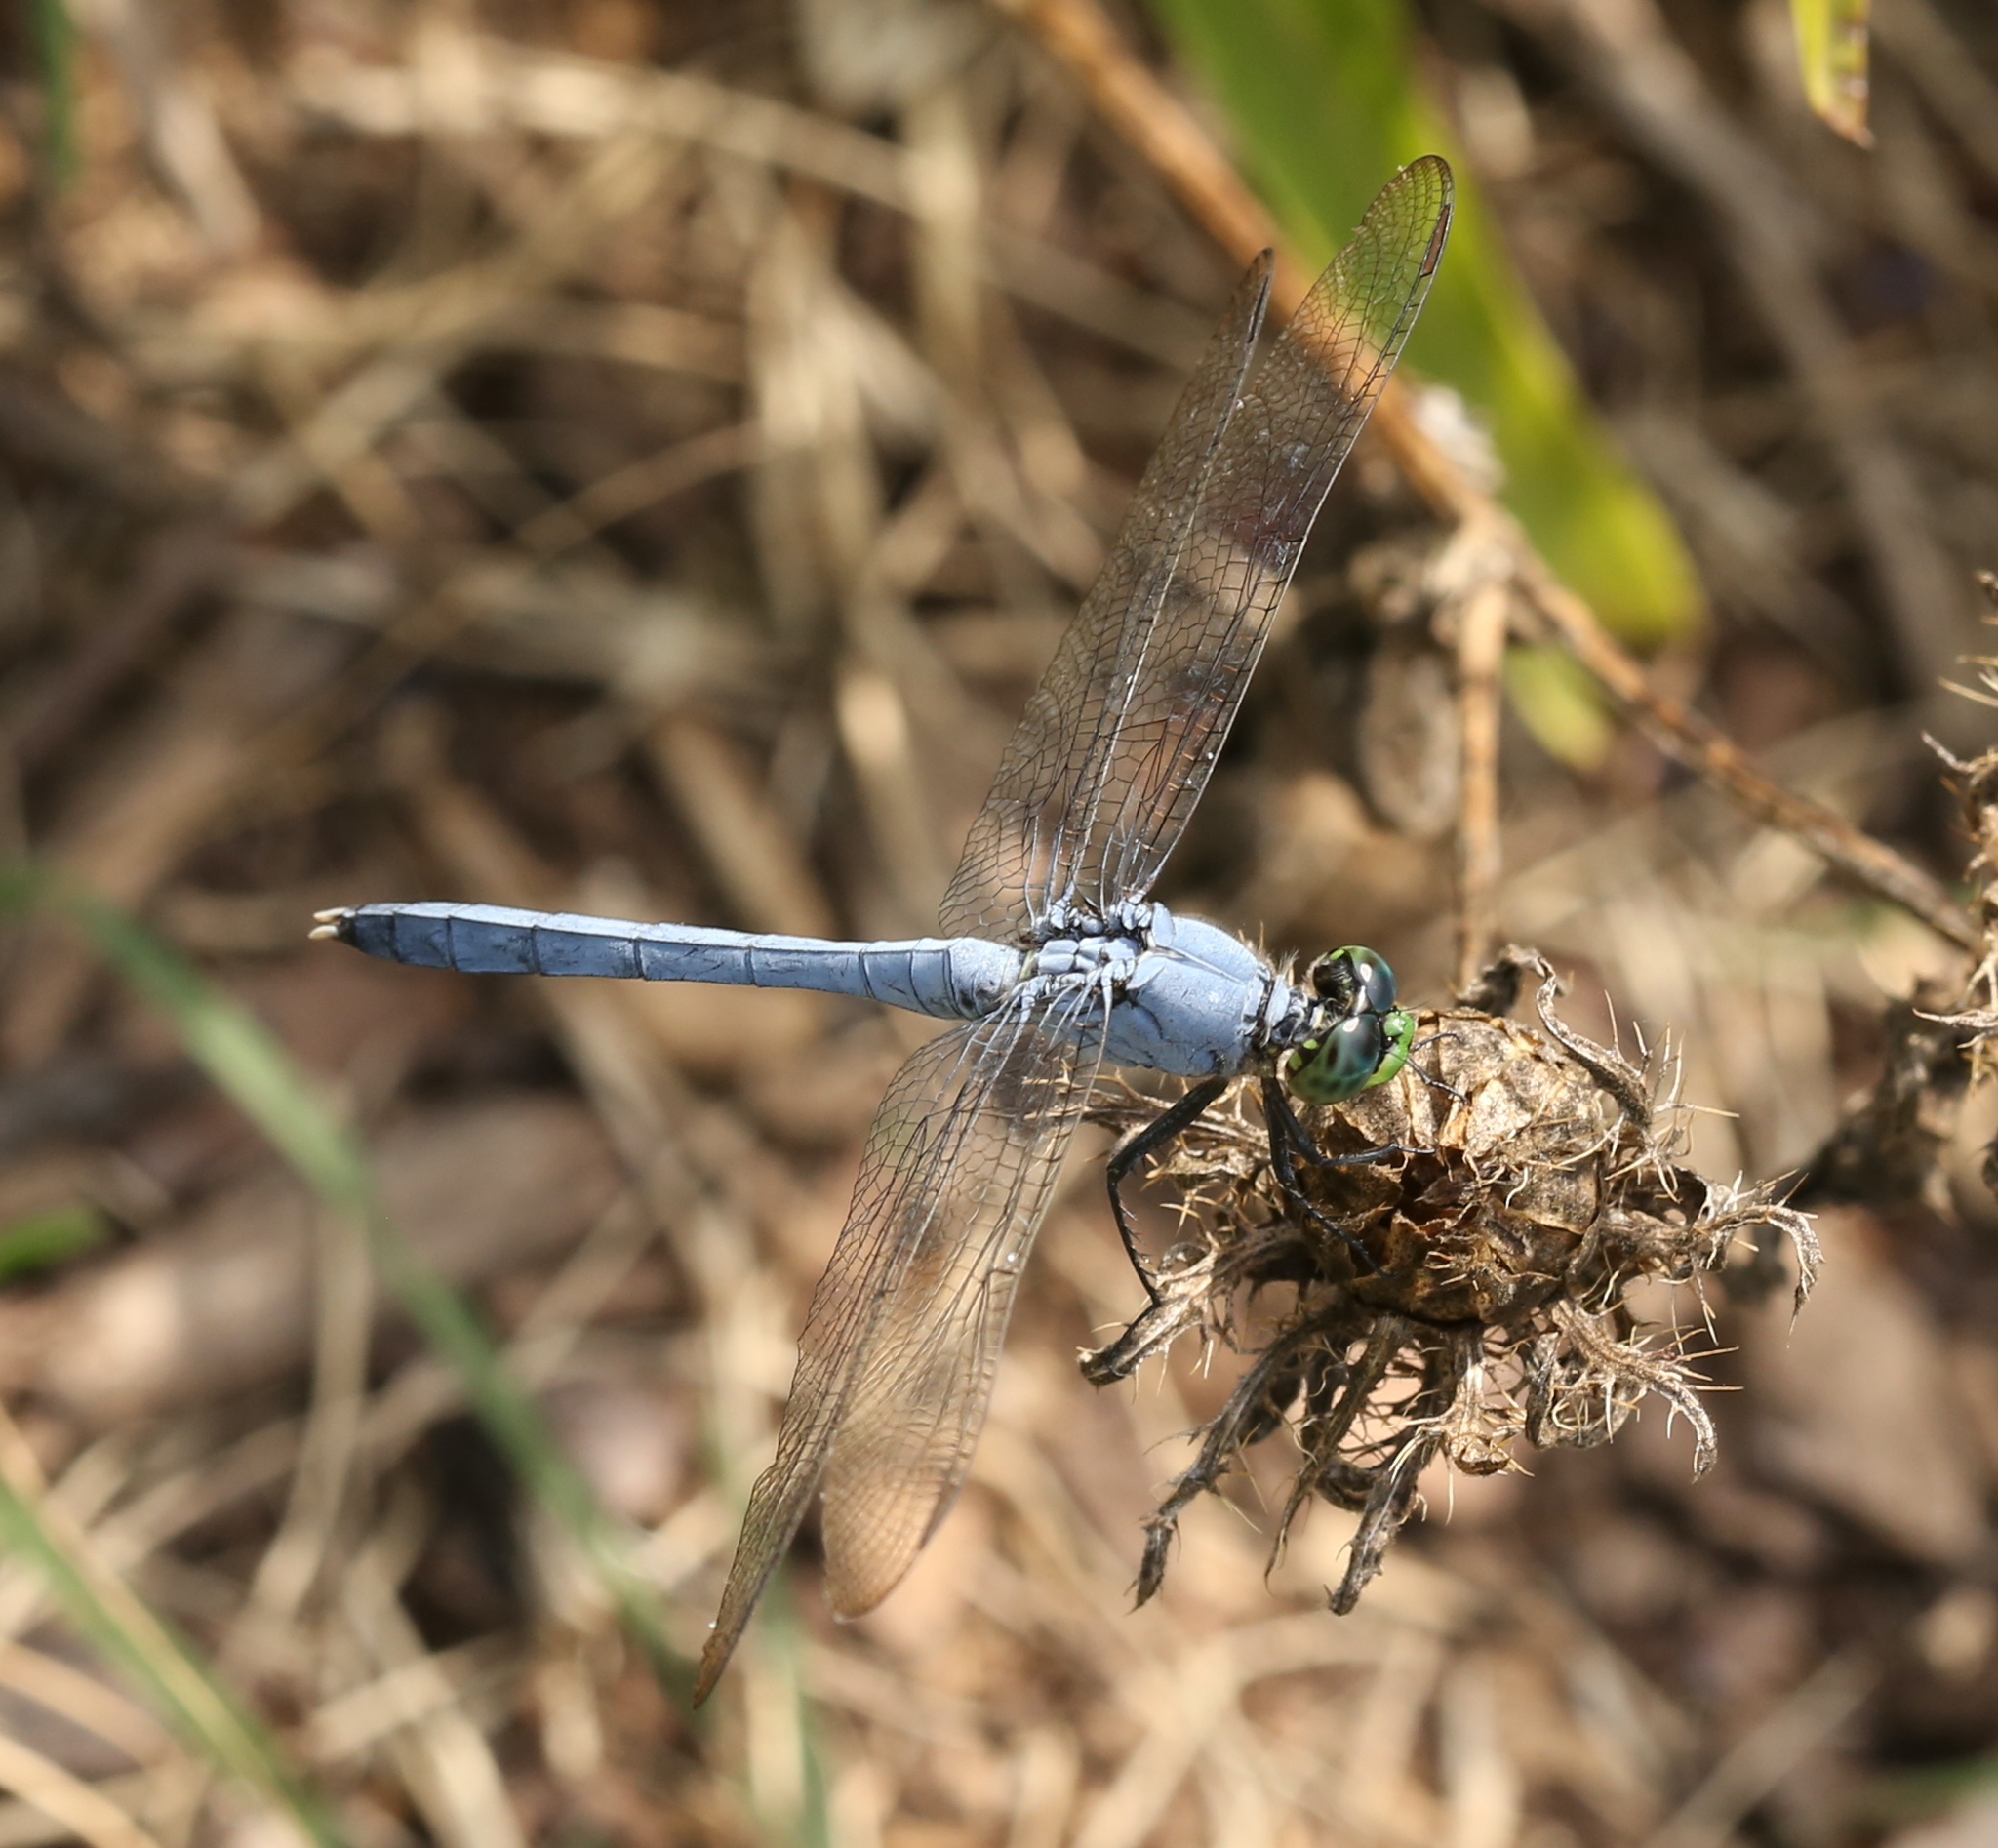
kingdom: Animalia
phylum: Arthropoda
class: Insecta
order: Odonata
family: Libellulidae
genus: Erythemis
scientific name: Erythemis simplicicollis
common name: Eastern pondhawk
